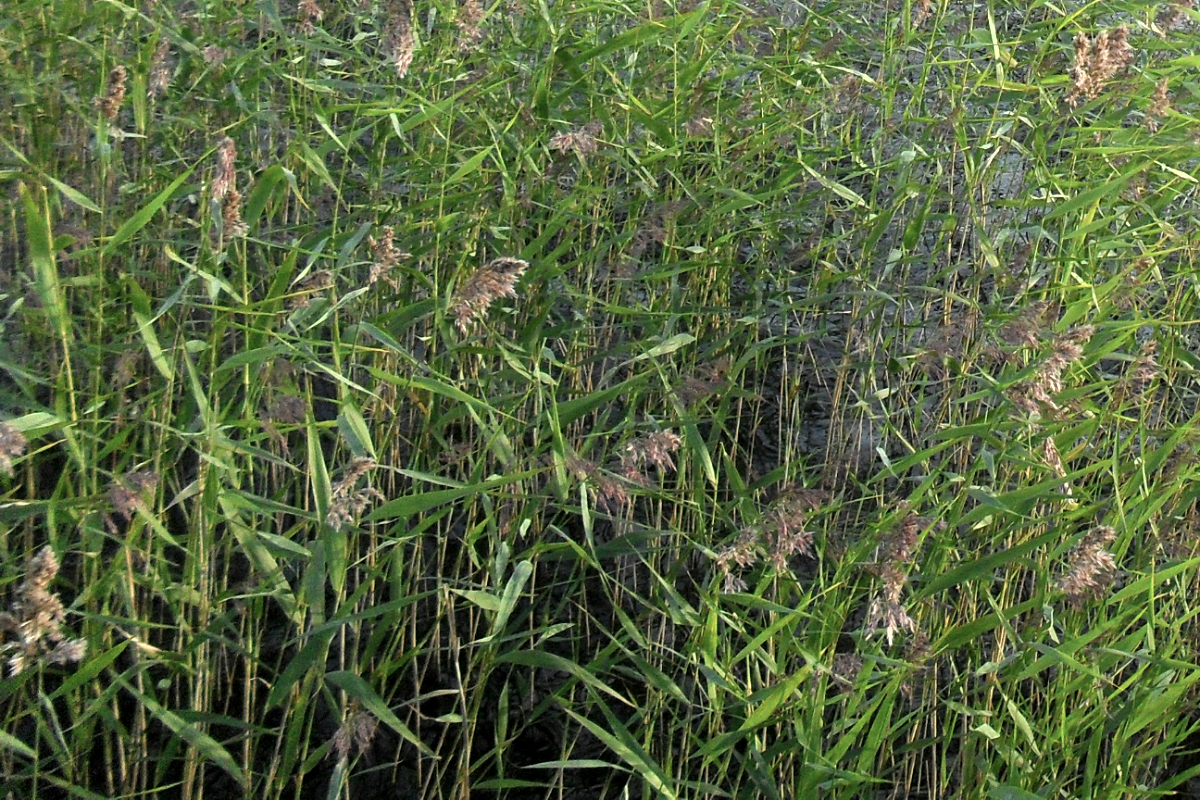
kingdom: Plantae
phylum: Tracheophyta
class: Liliopsida
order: Poales
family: Poaceae
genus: Phragmites
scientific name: Phragmites australis
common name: Common reed
